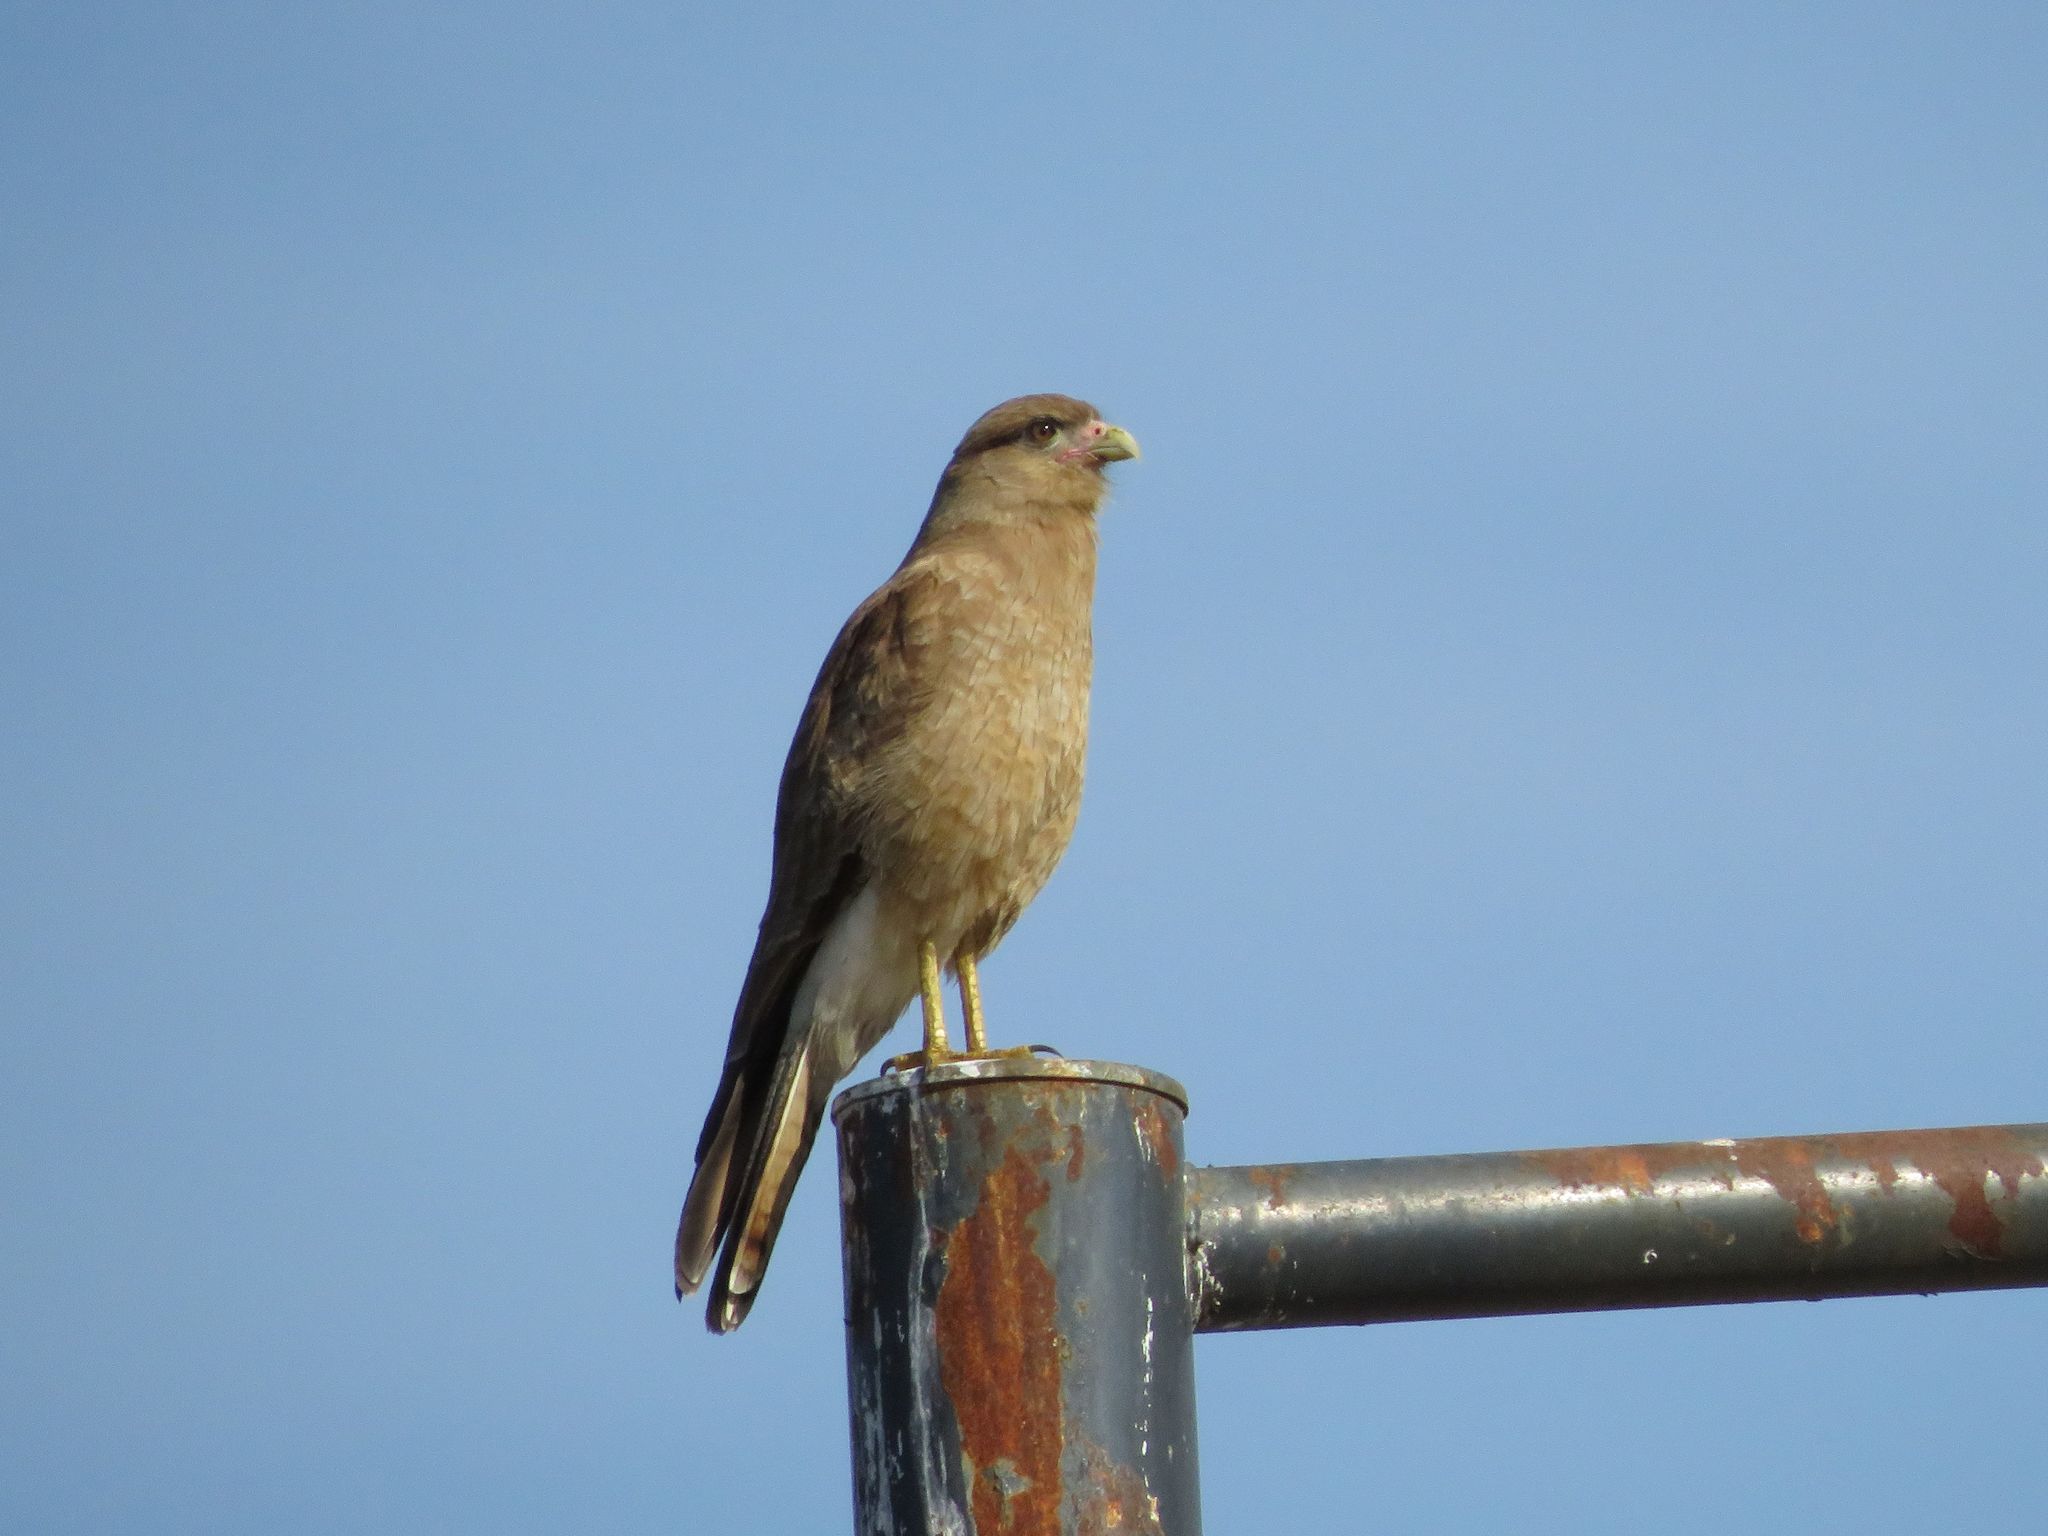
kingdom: Animalia
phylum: Chordata
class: Aves
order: Falconiformes
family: Falconidae
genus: Daptrius
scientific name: Daptrius
